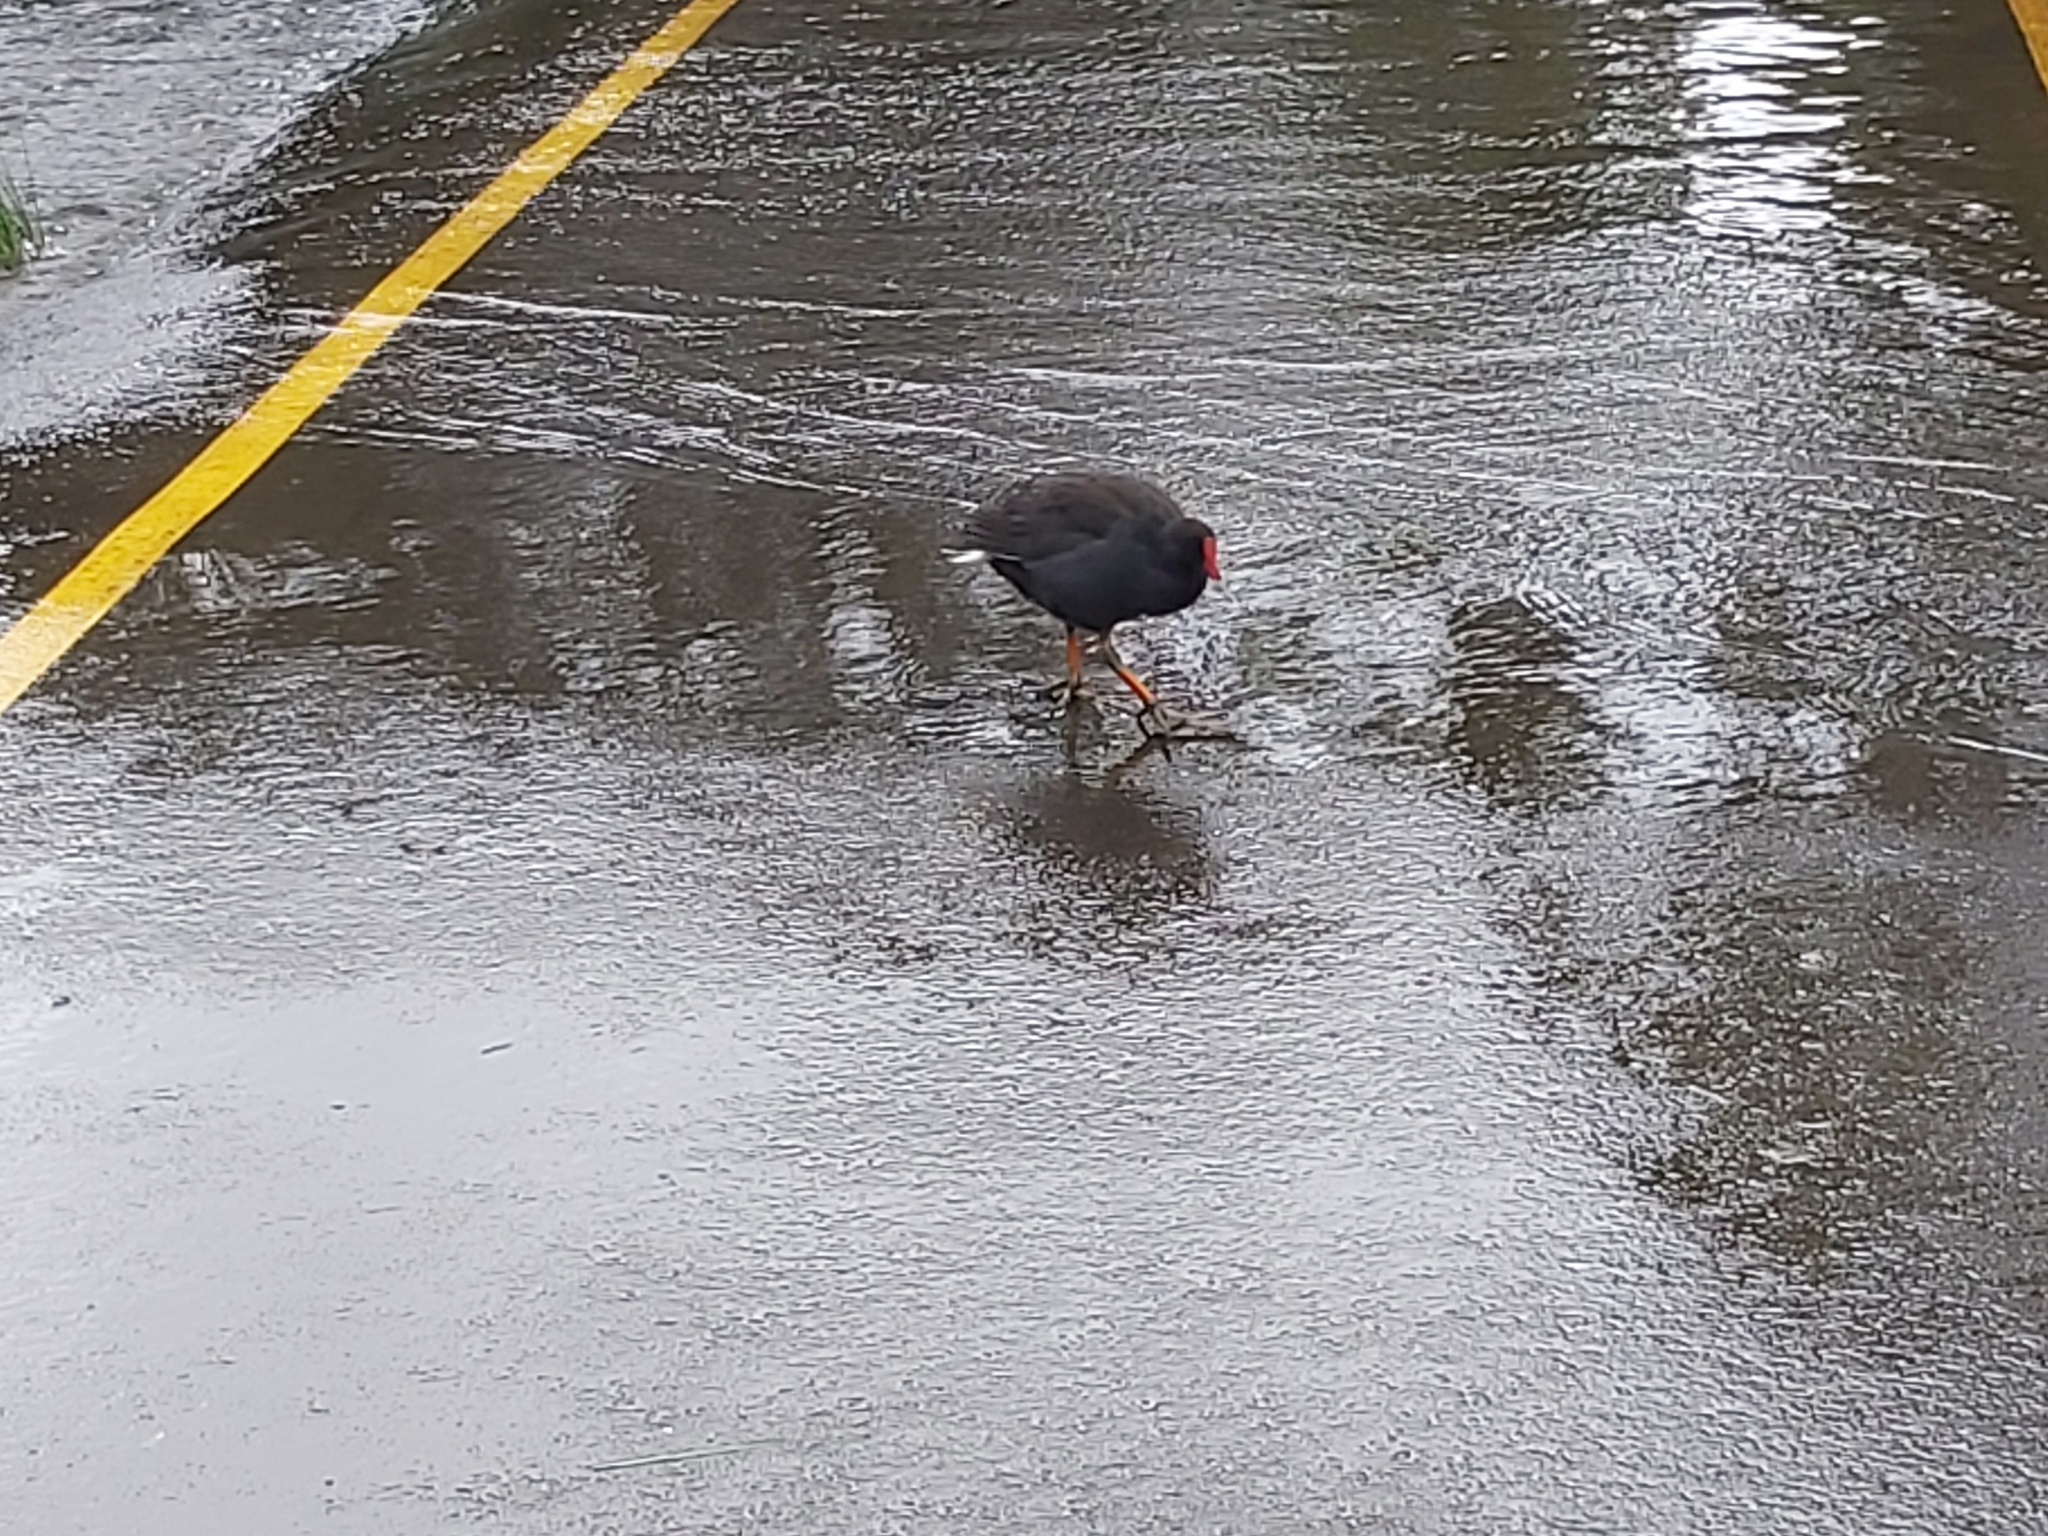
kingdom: Animalia
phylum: Chordata
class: Aves
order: Gruiformes
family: Rallidae
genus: Gallinula
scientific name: Gallinula tenebrosa
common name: Dusky moorhen
